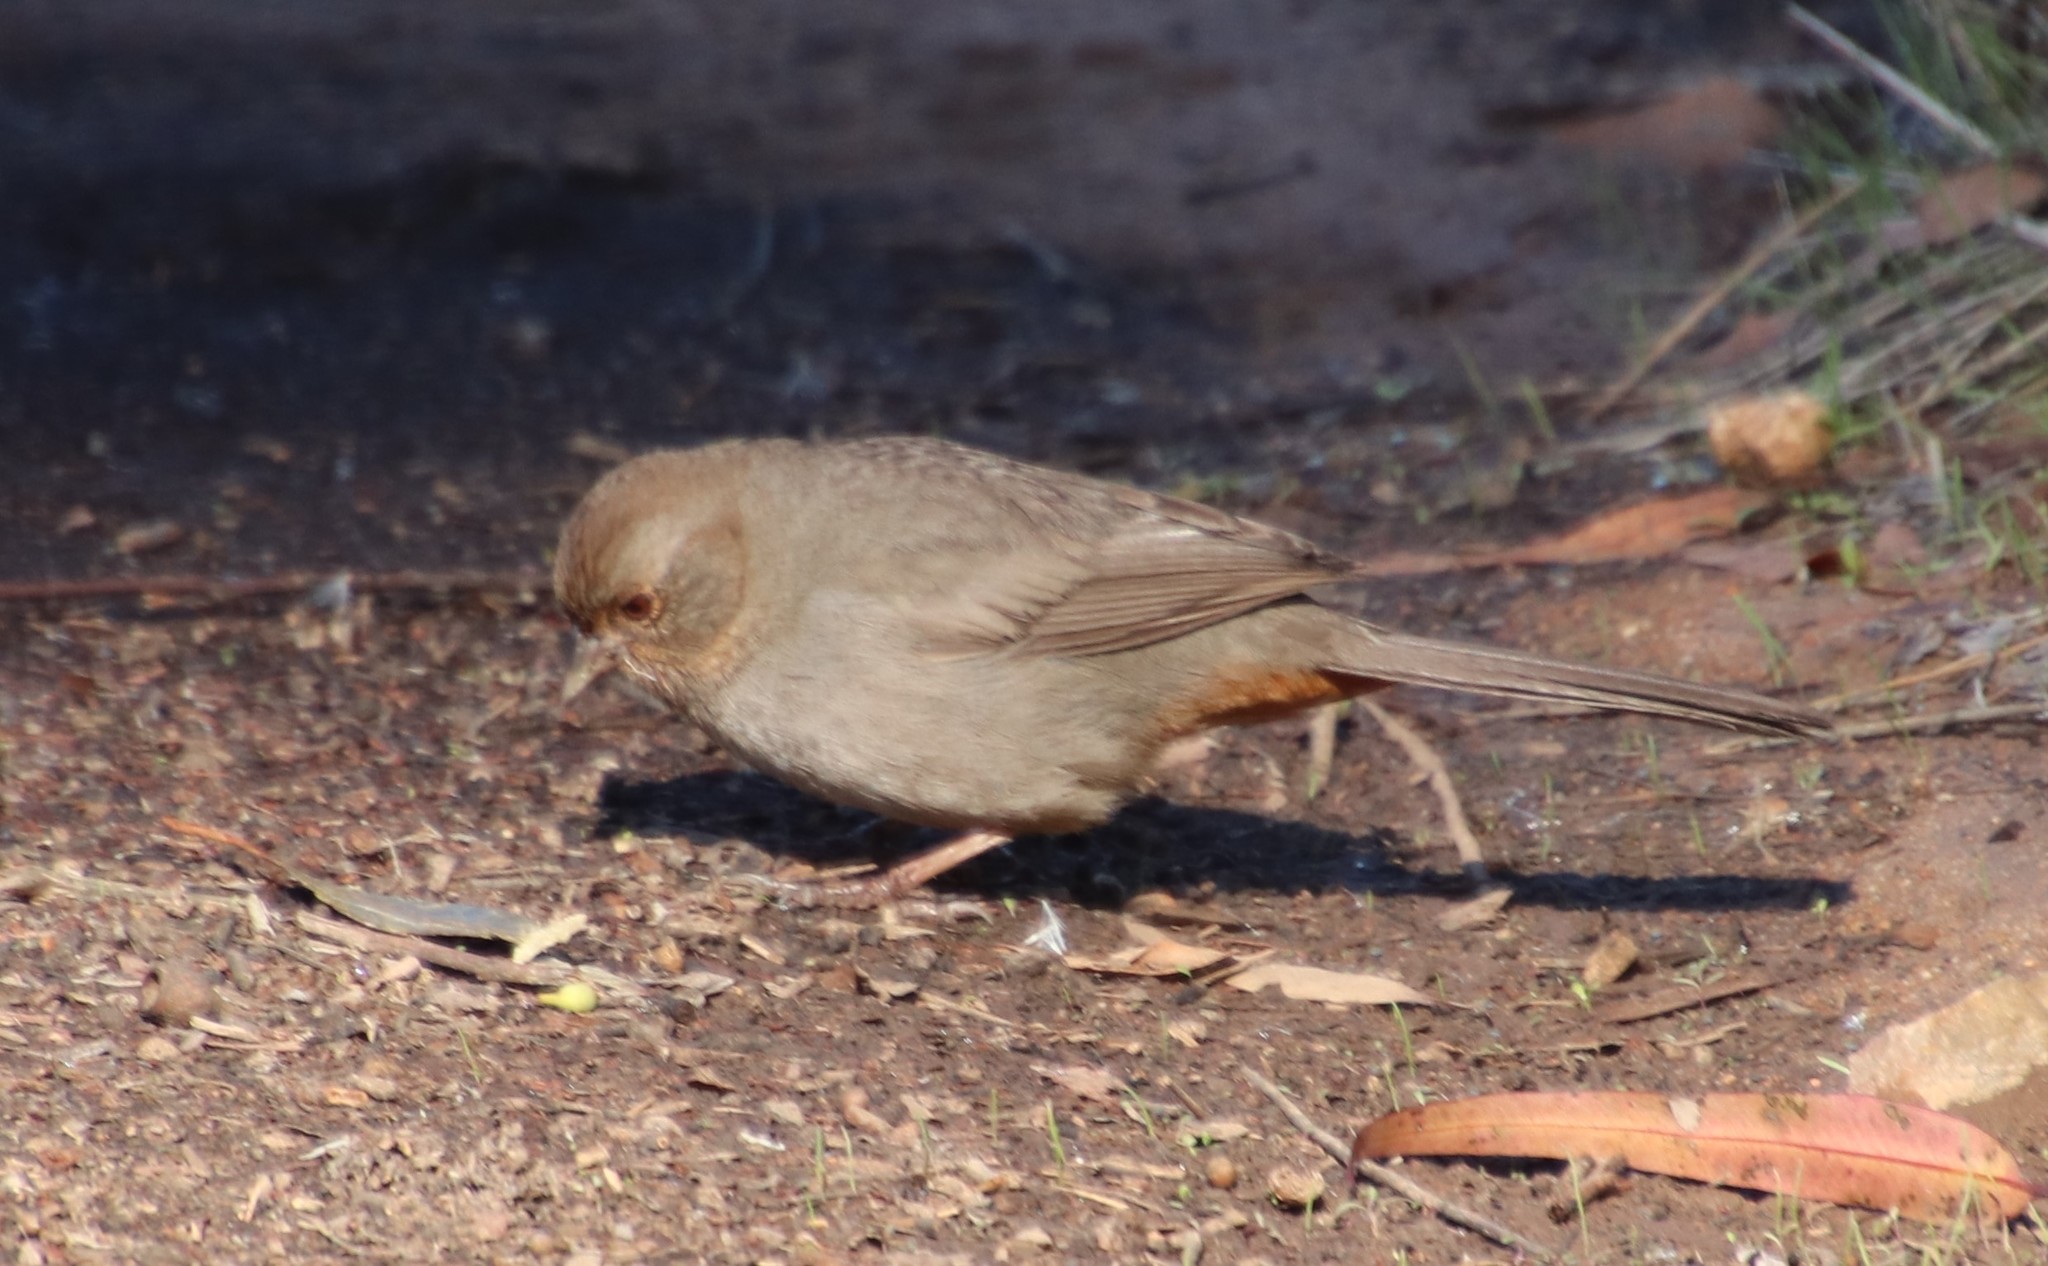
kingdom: Animalia
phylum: Chordata
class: Aves
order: Passeriformes
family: Passerellidae
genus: Melozone
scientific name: Melozone crissalis
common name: California towhee
